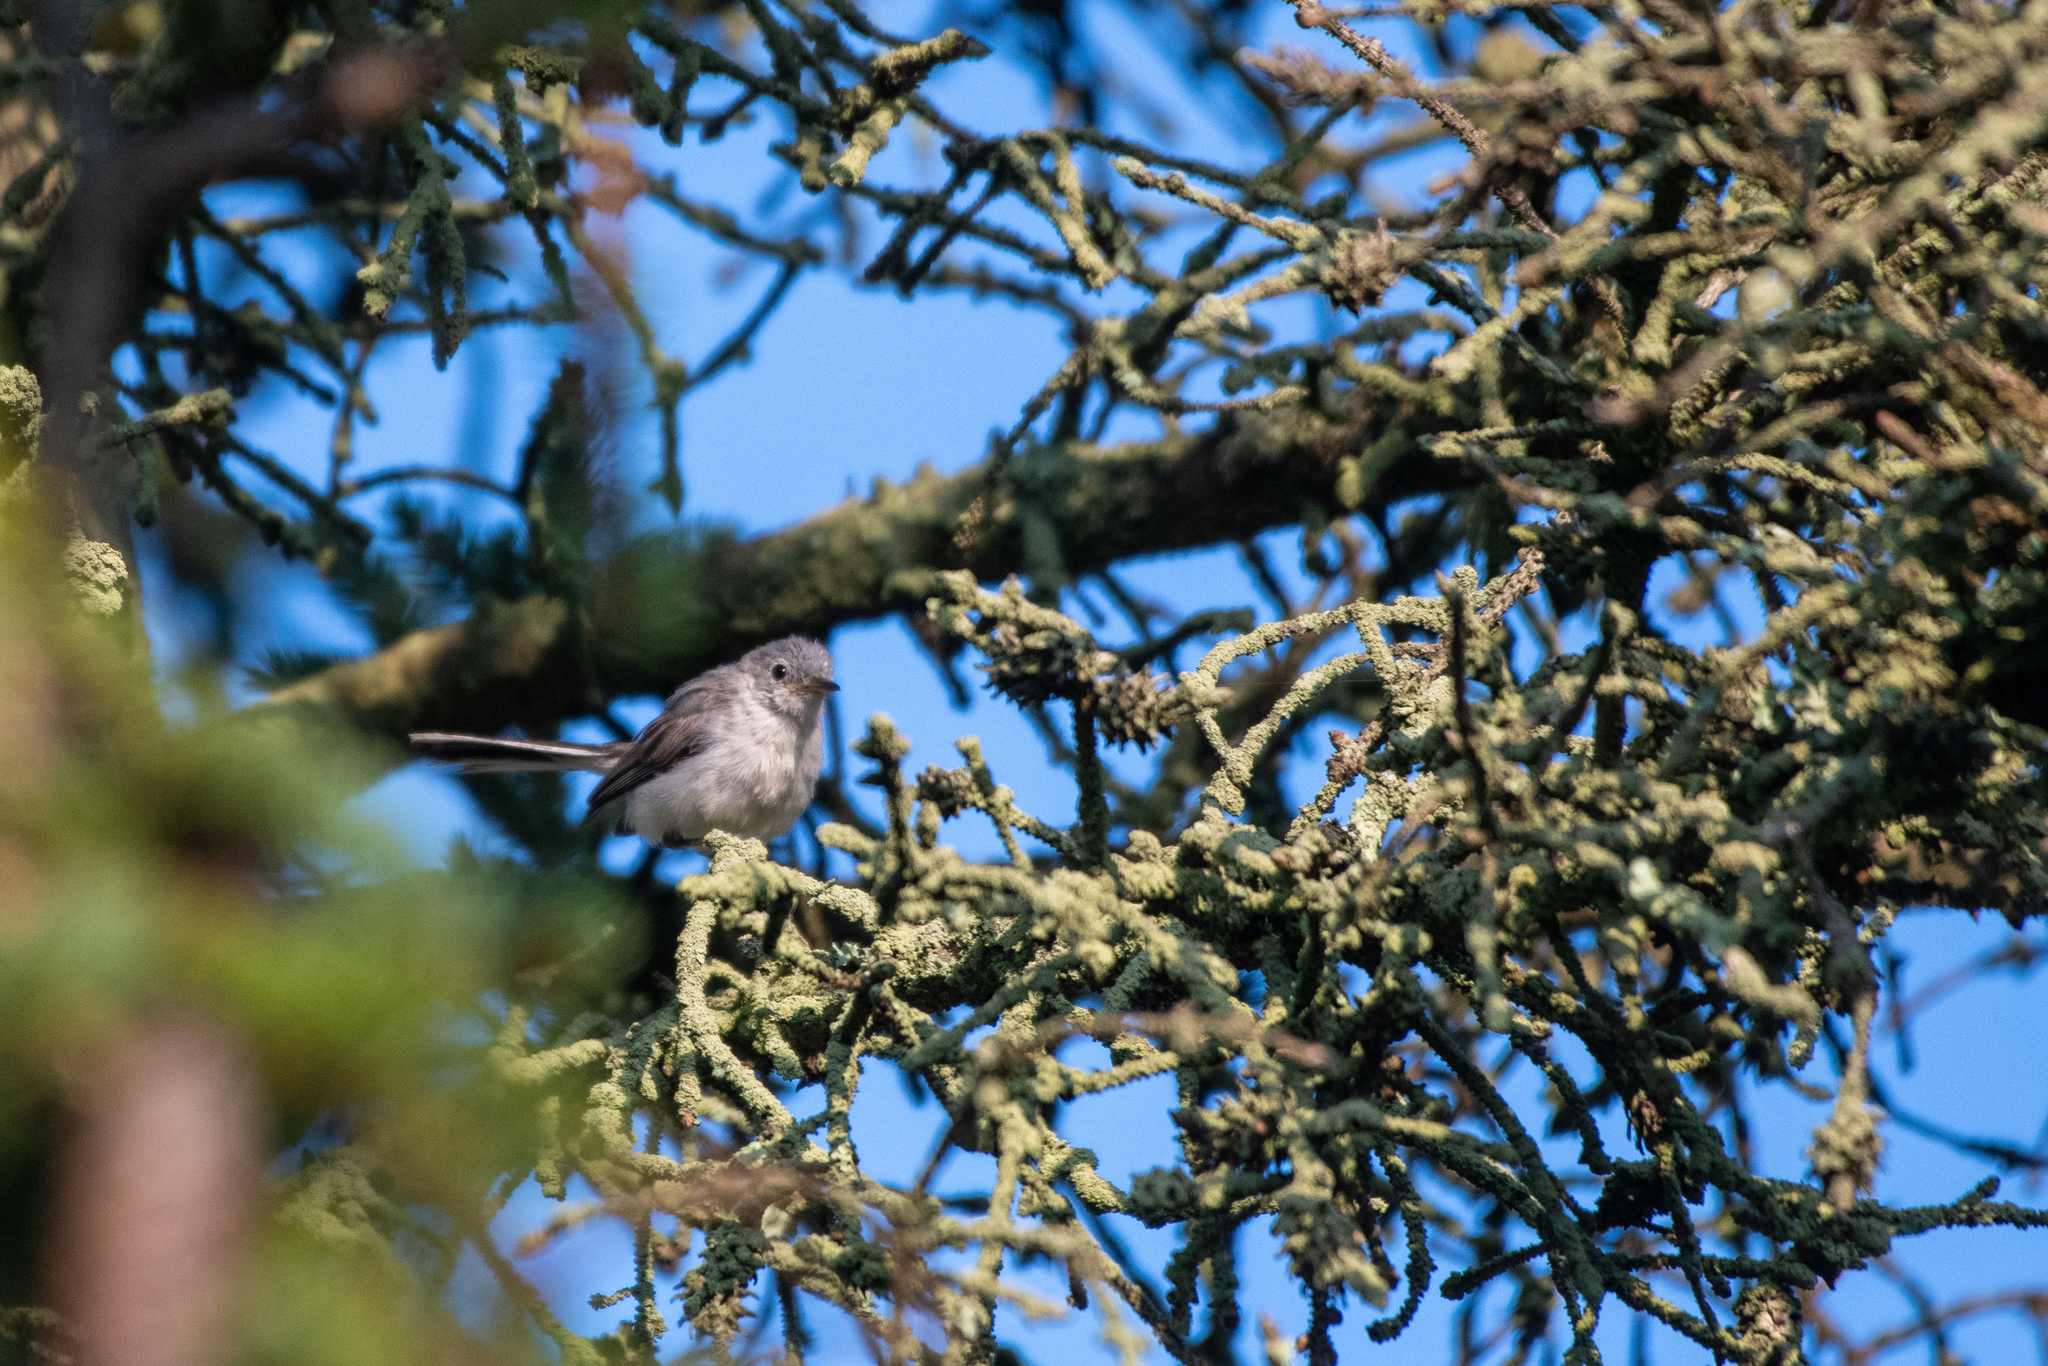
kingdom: Animalia
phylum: Chordata
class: Aves
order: Passeriformes
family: Polioptilidae
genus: Polioptila
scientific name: Polioptila caerulea
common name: Blue-gray gnatcatcher
